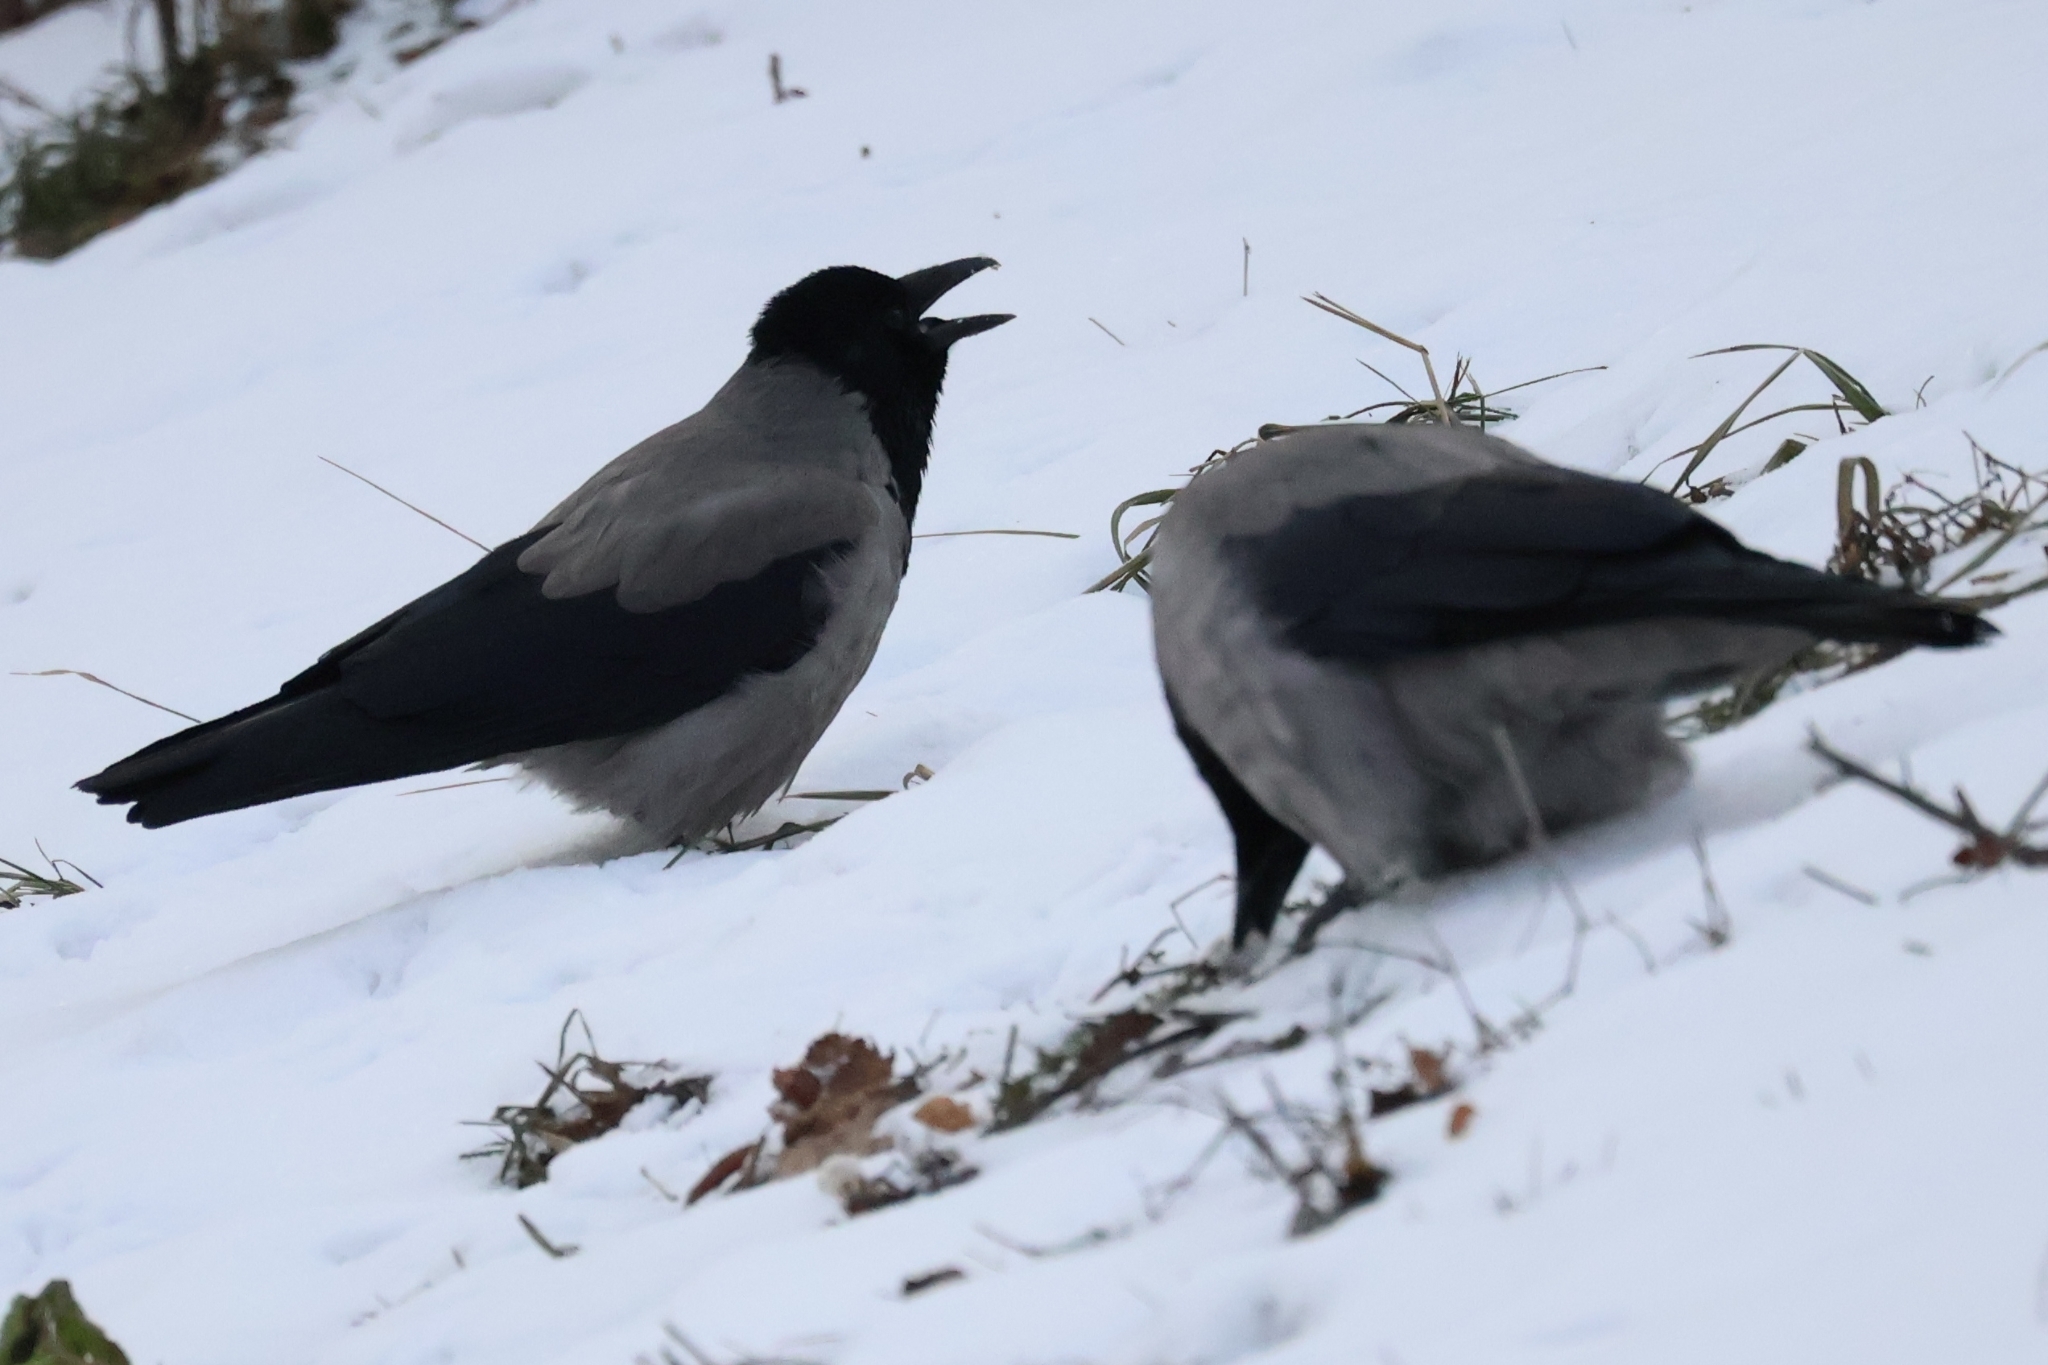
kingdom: Animalia
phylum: Chordata
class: Aves
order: Passeriformes
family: Corvidae
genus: Corvus
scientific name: Corvus cornix
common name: Hooded crow
